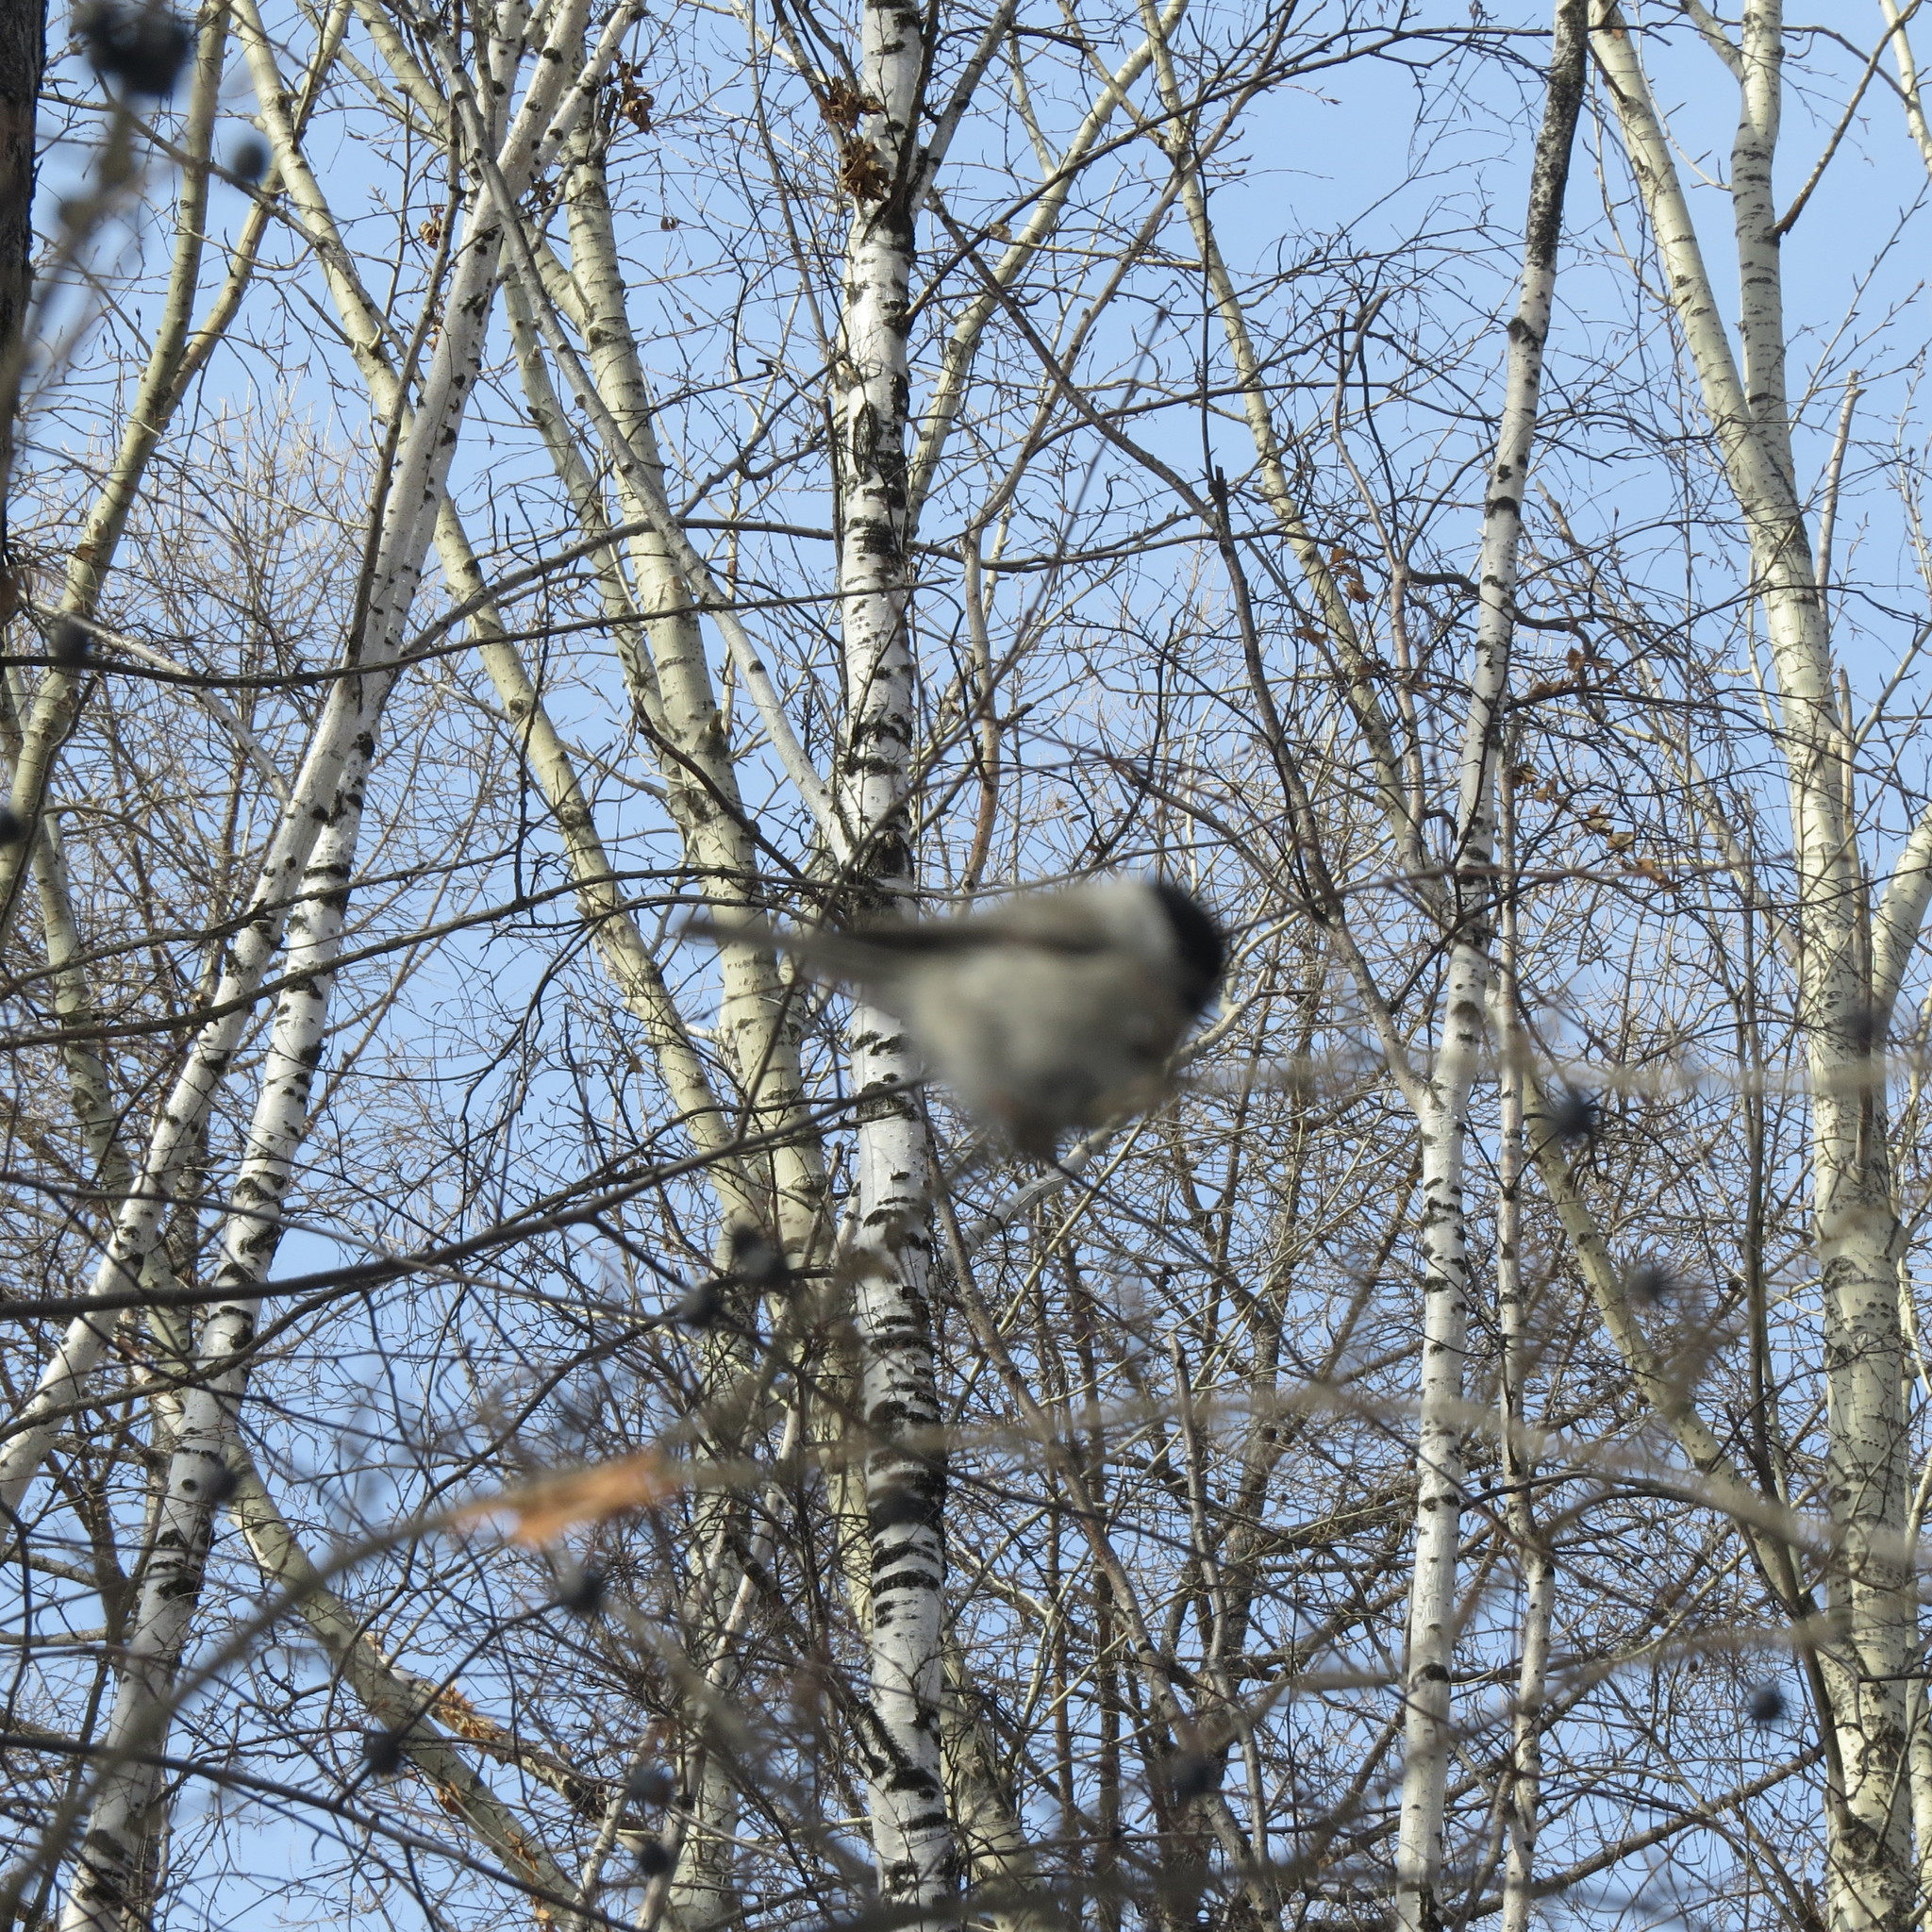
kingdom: Animalia
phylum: Chordata
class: Aves
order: Passeriformes
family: Paridae
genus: Poecile
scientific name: Poecile montanus
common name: Willow tit
